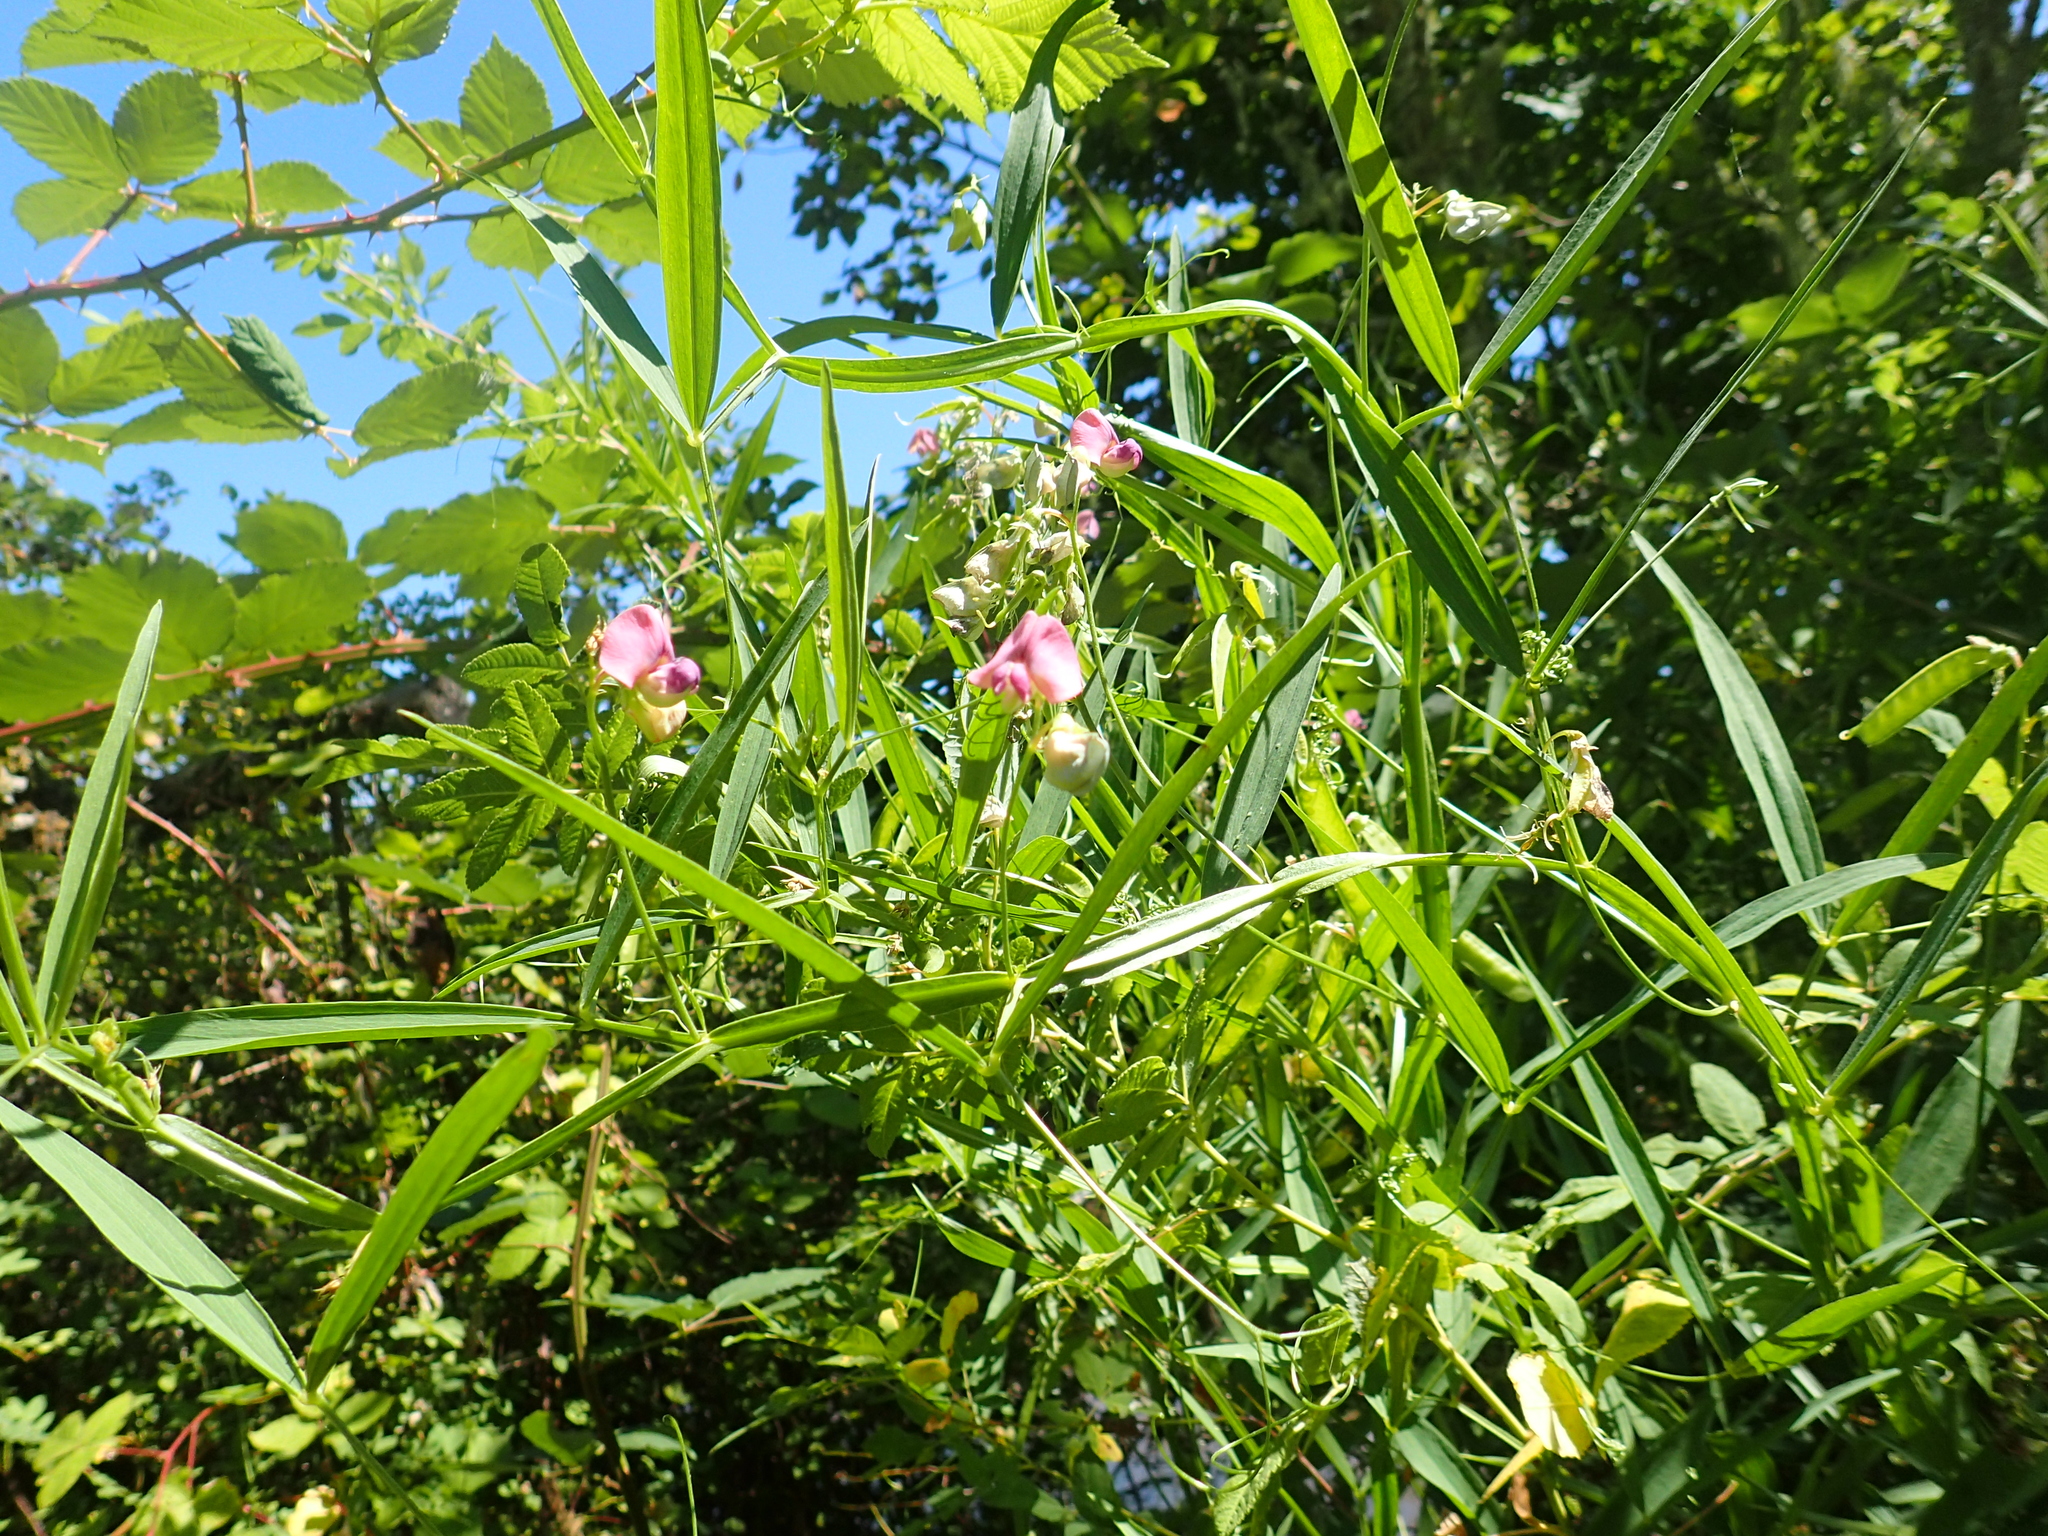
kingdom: Plantae
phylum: Tracheophyta
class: Magnoliopsida
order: Fabales
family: Fabaceae
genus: Lathyrus
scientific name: Lathyrus sylvestris
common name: Flat pea
